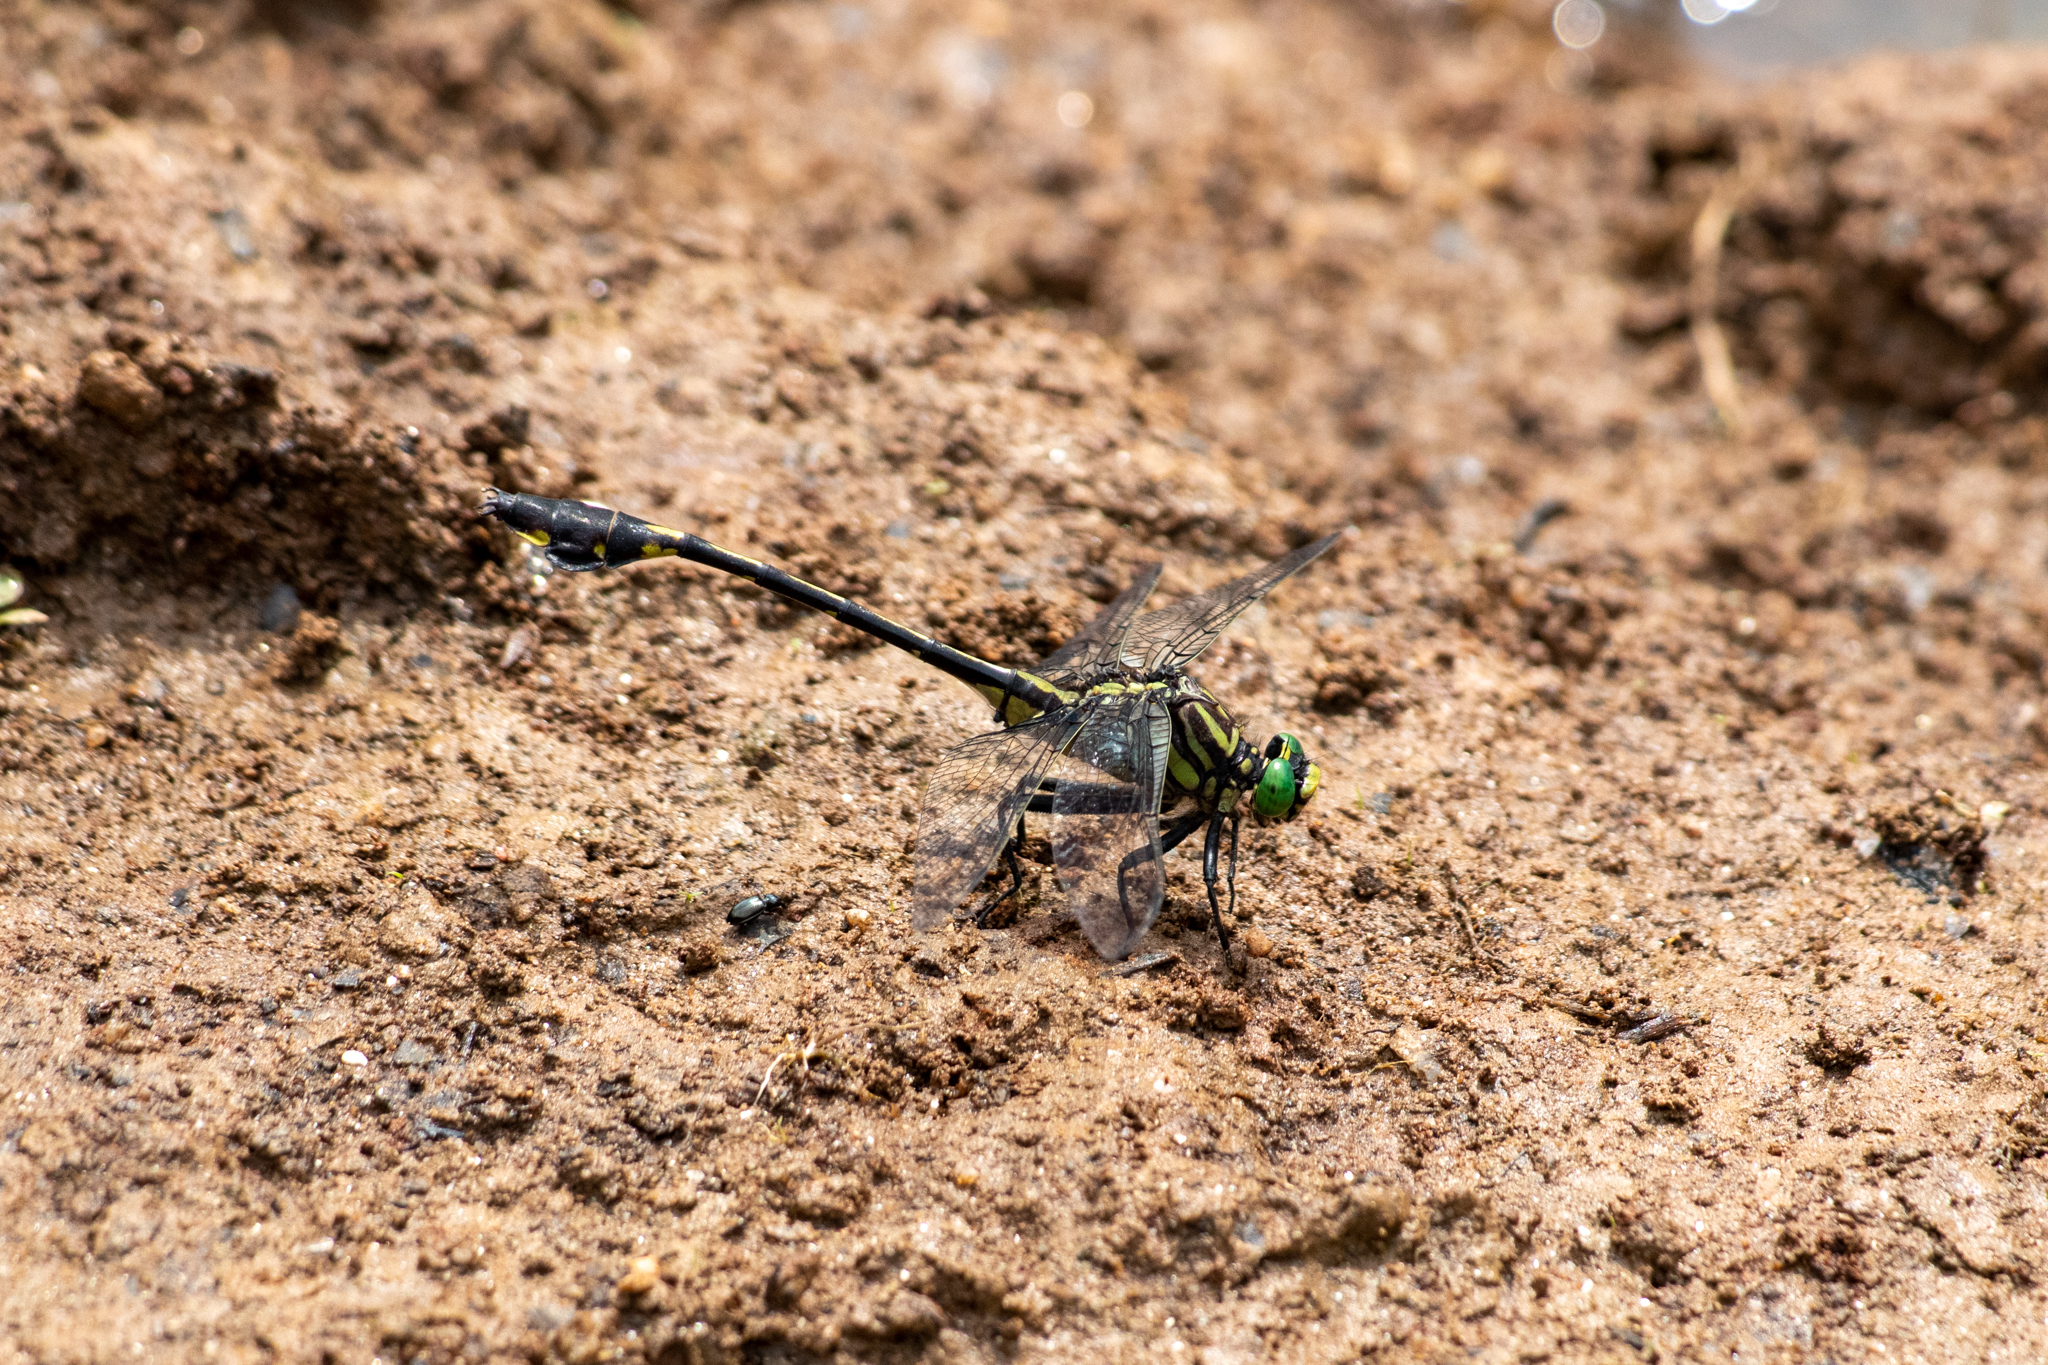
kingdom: Animalia
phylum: Arthropoda
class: Insecta
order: Odonata
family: Gomphidae
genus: Gomphurus
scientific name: Gomphurus dilatatus
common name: Blackwater clubtail
